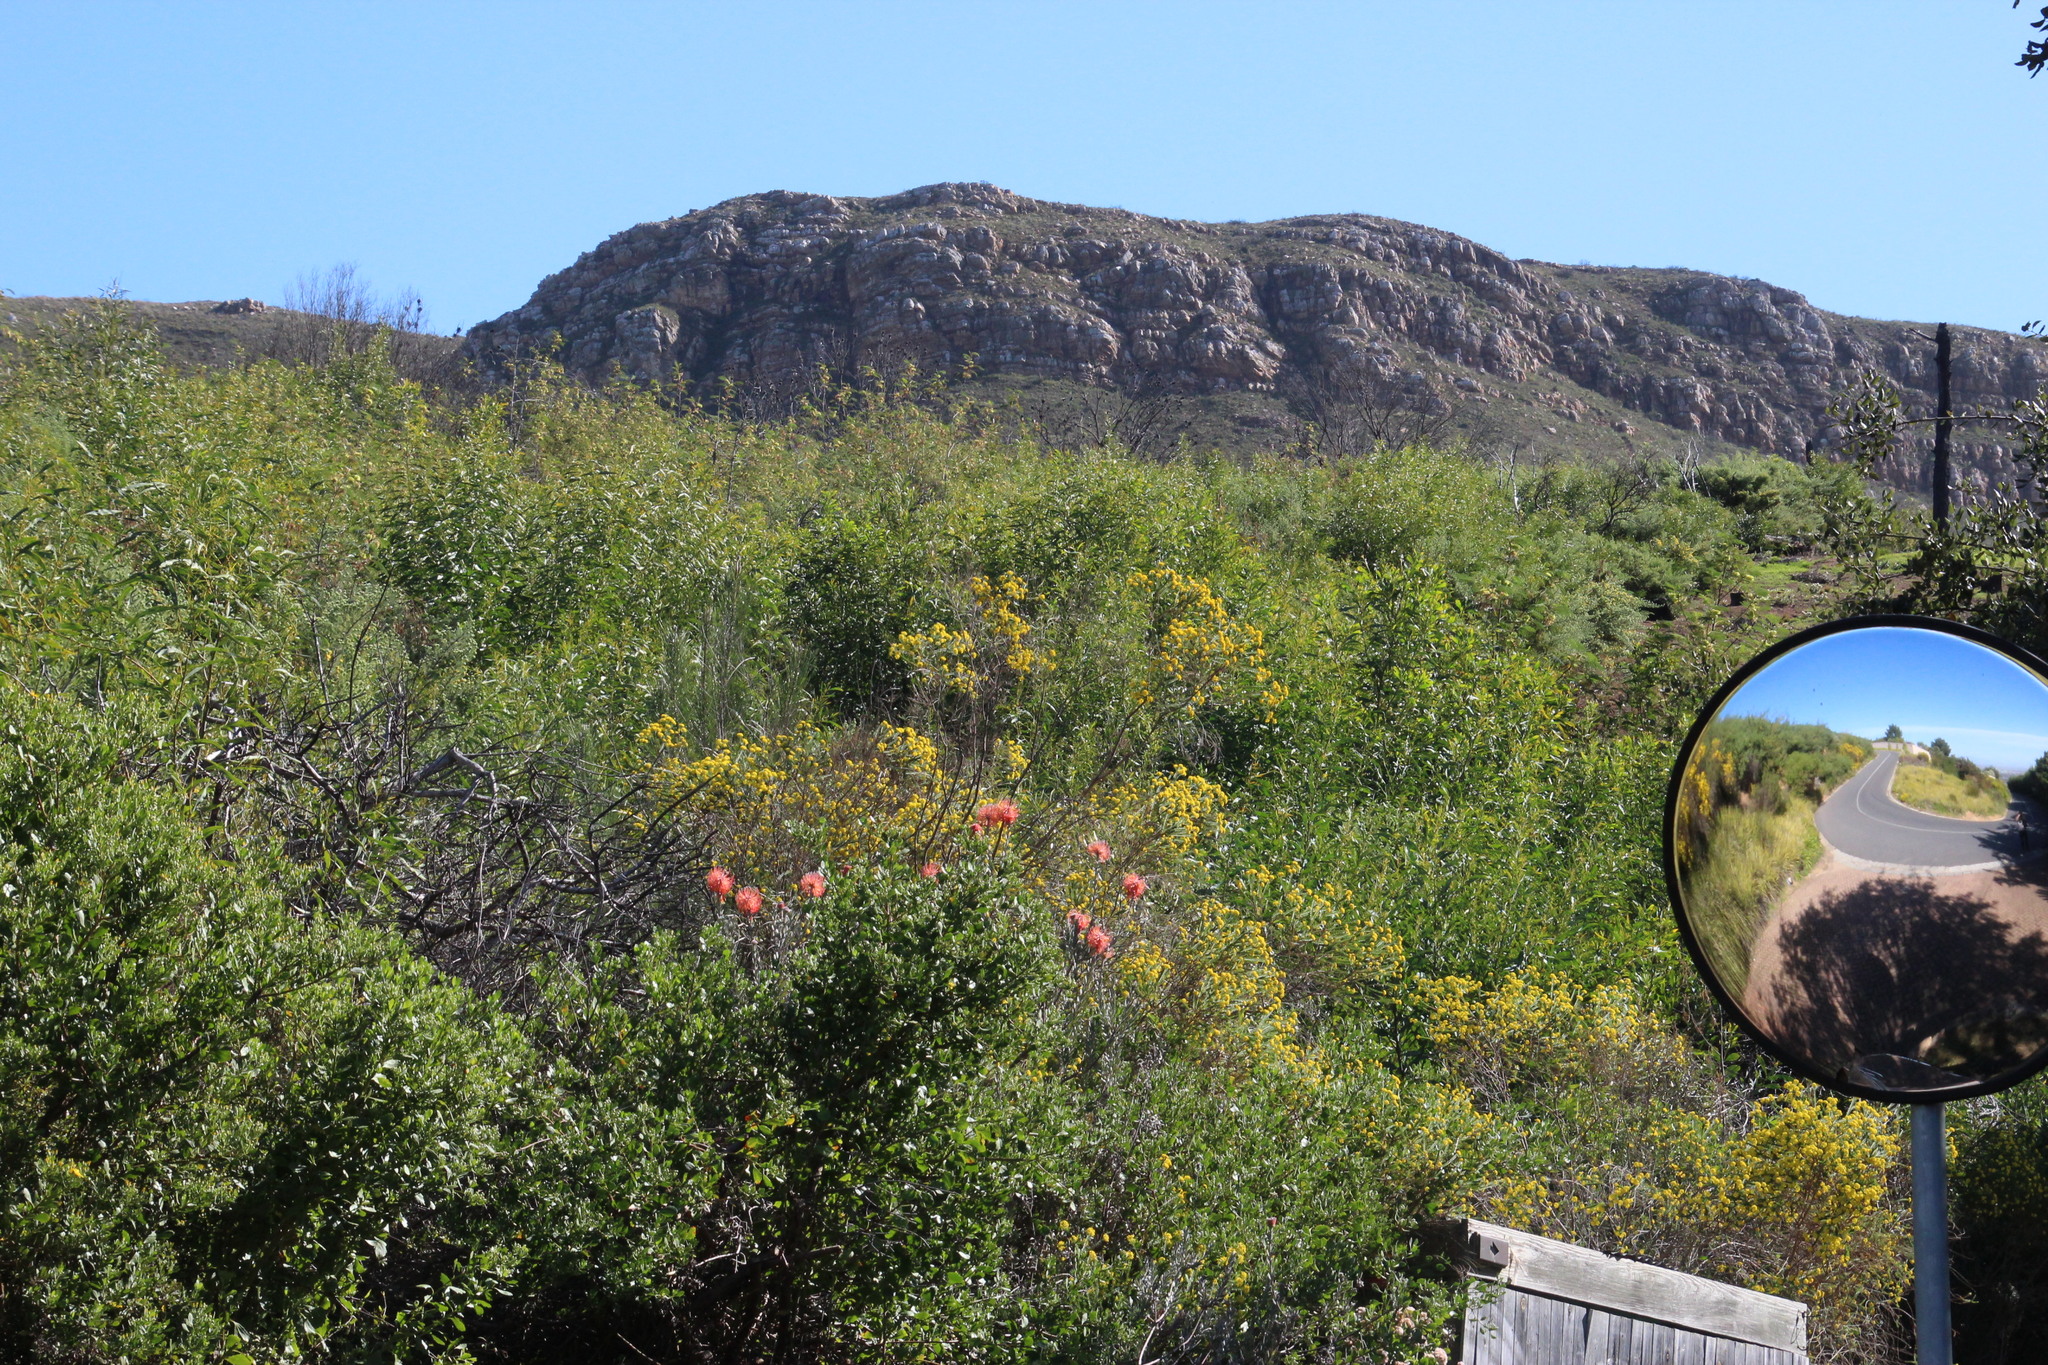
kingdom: Plantae
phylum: Tracheophyta
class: Magnoliopsida
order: Proteales
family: Proteaceae
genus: Leucospermum
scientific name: Leucospermum reflexum
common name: Rocket pincushion
